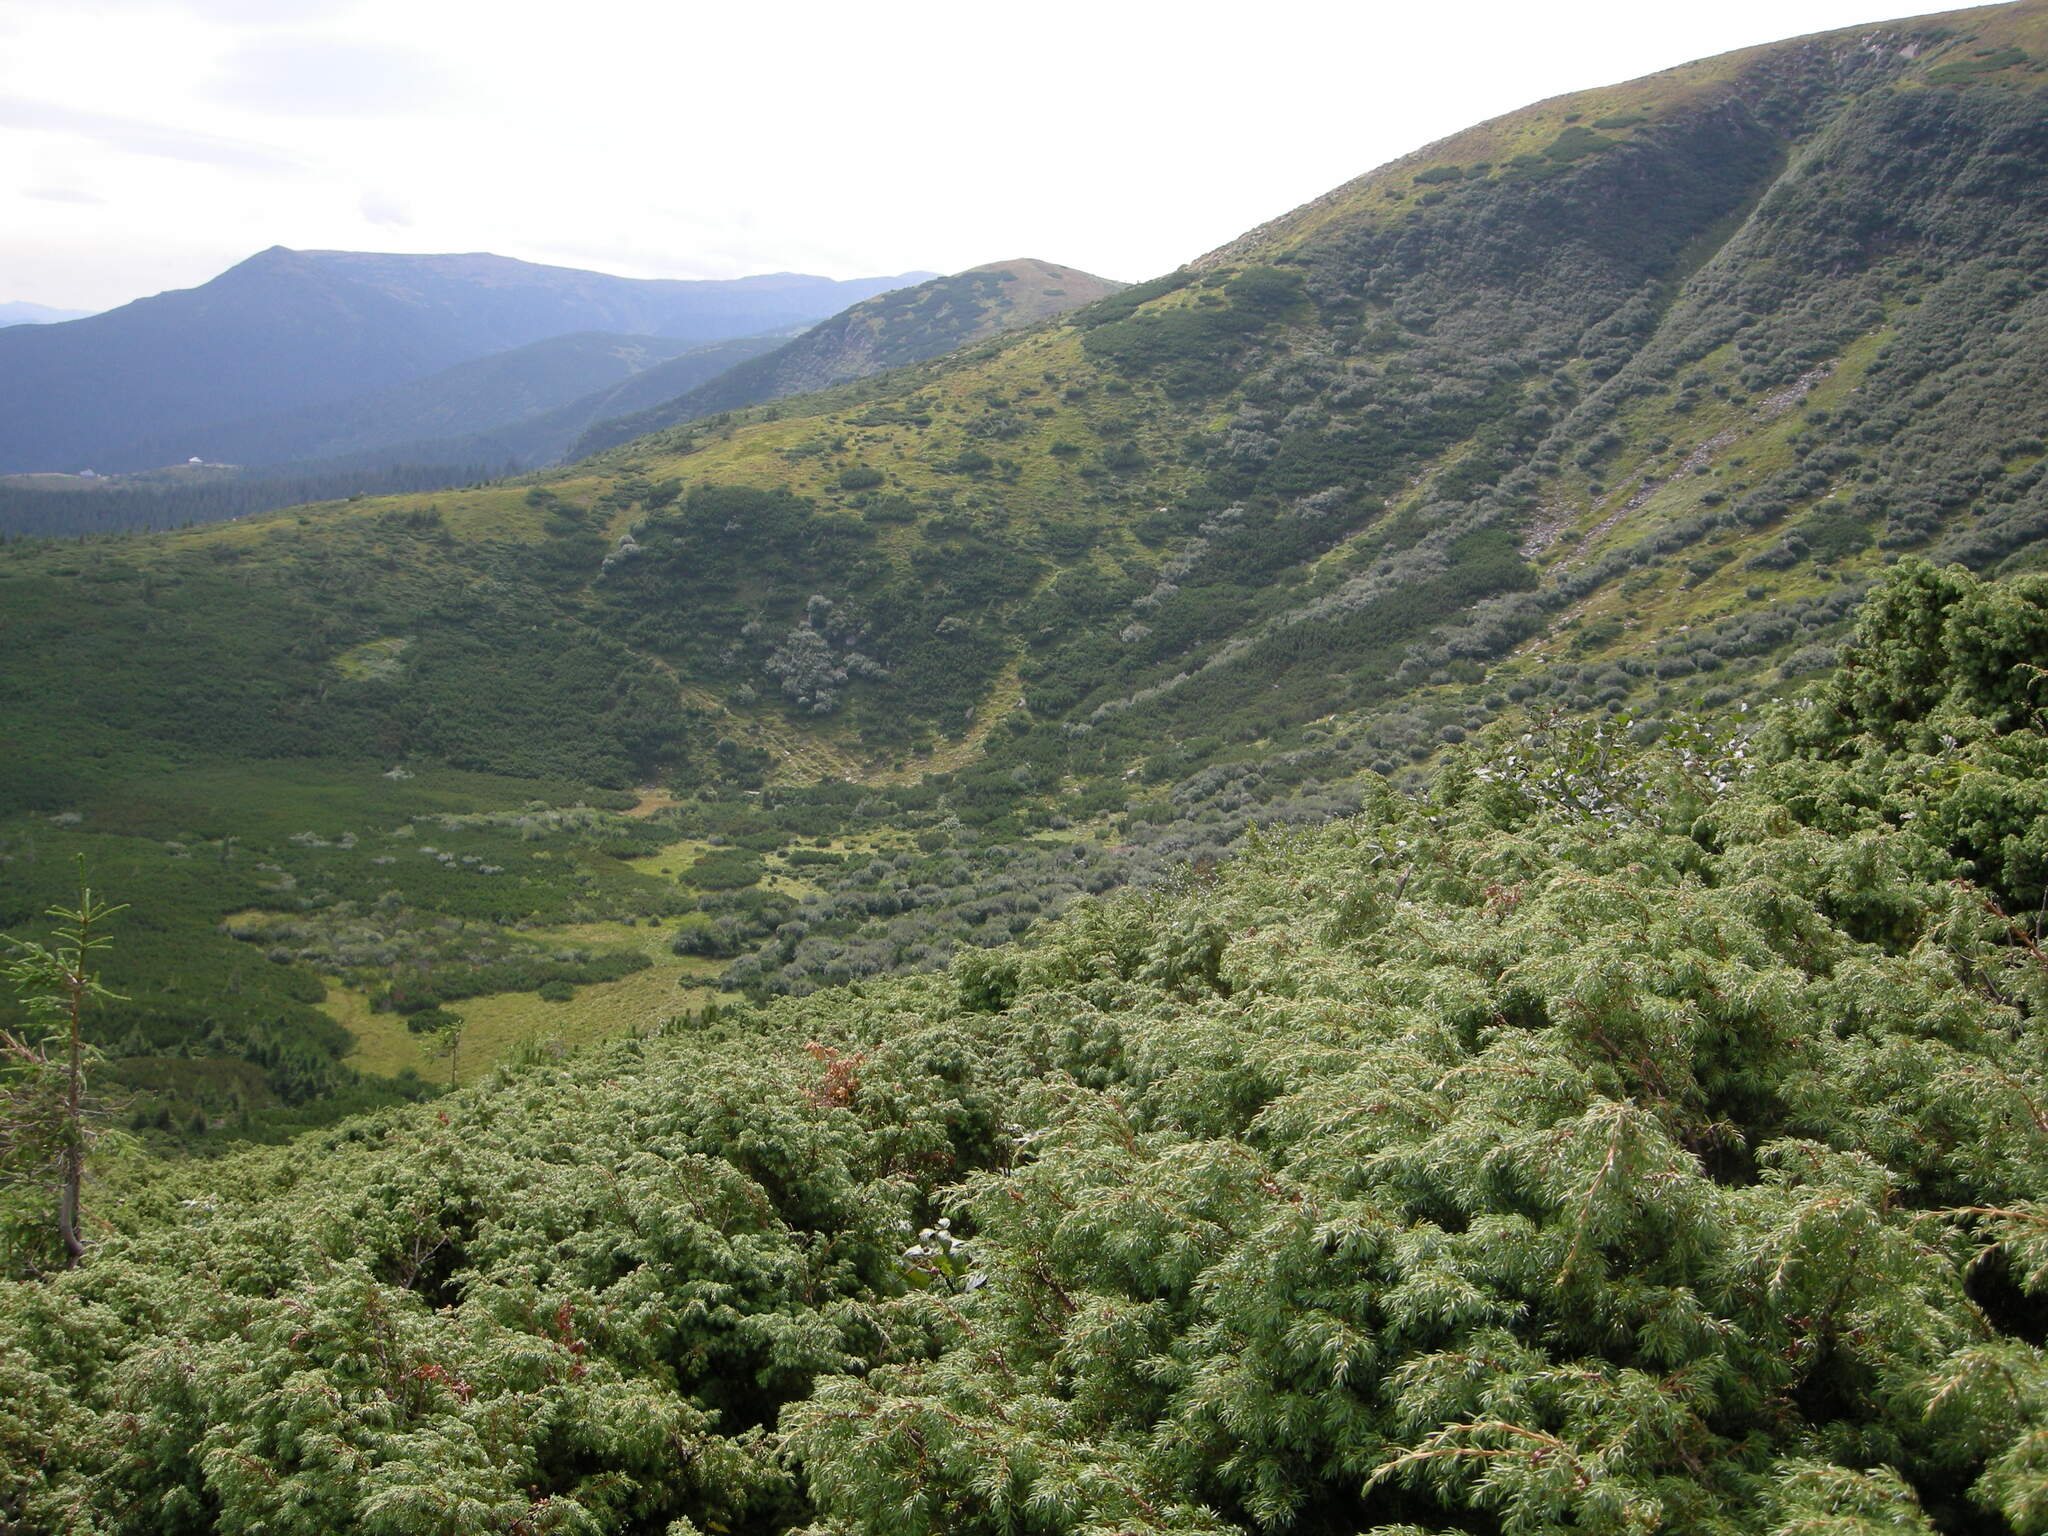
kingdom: Plantae
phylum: Tracheophyta
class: Pinopsida
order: Pinales
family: Cupressaceae
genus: Juniperus
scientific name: Juniperus communis
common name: Common juniper
